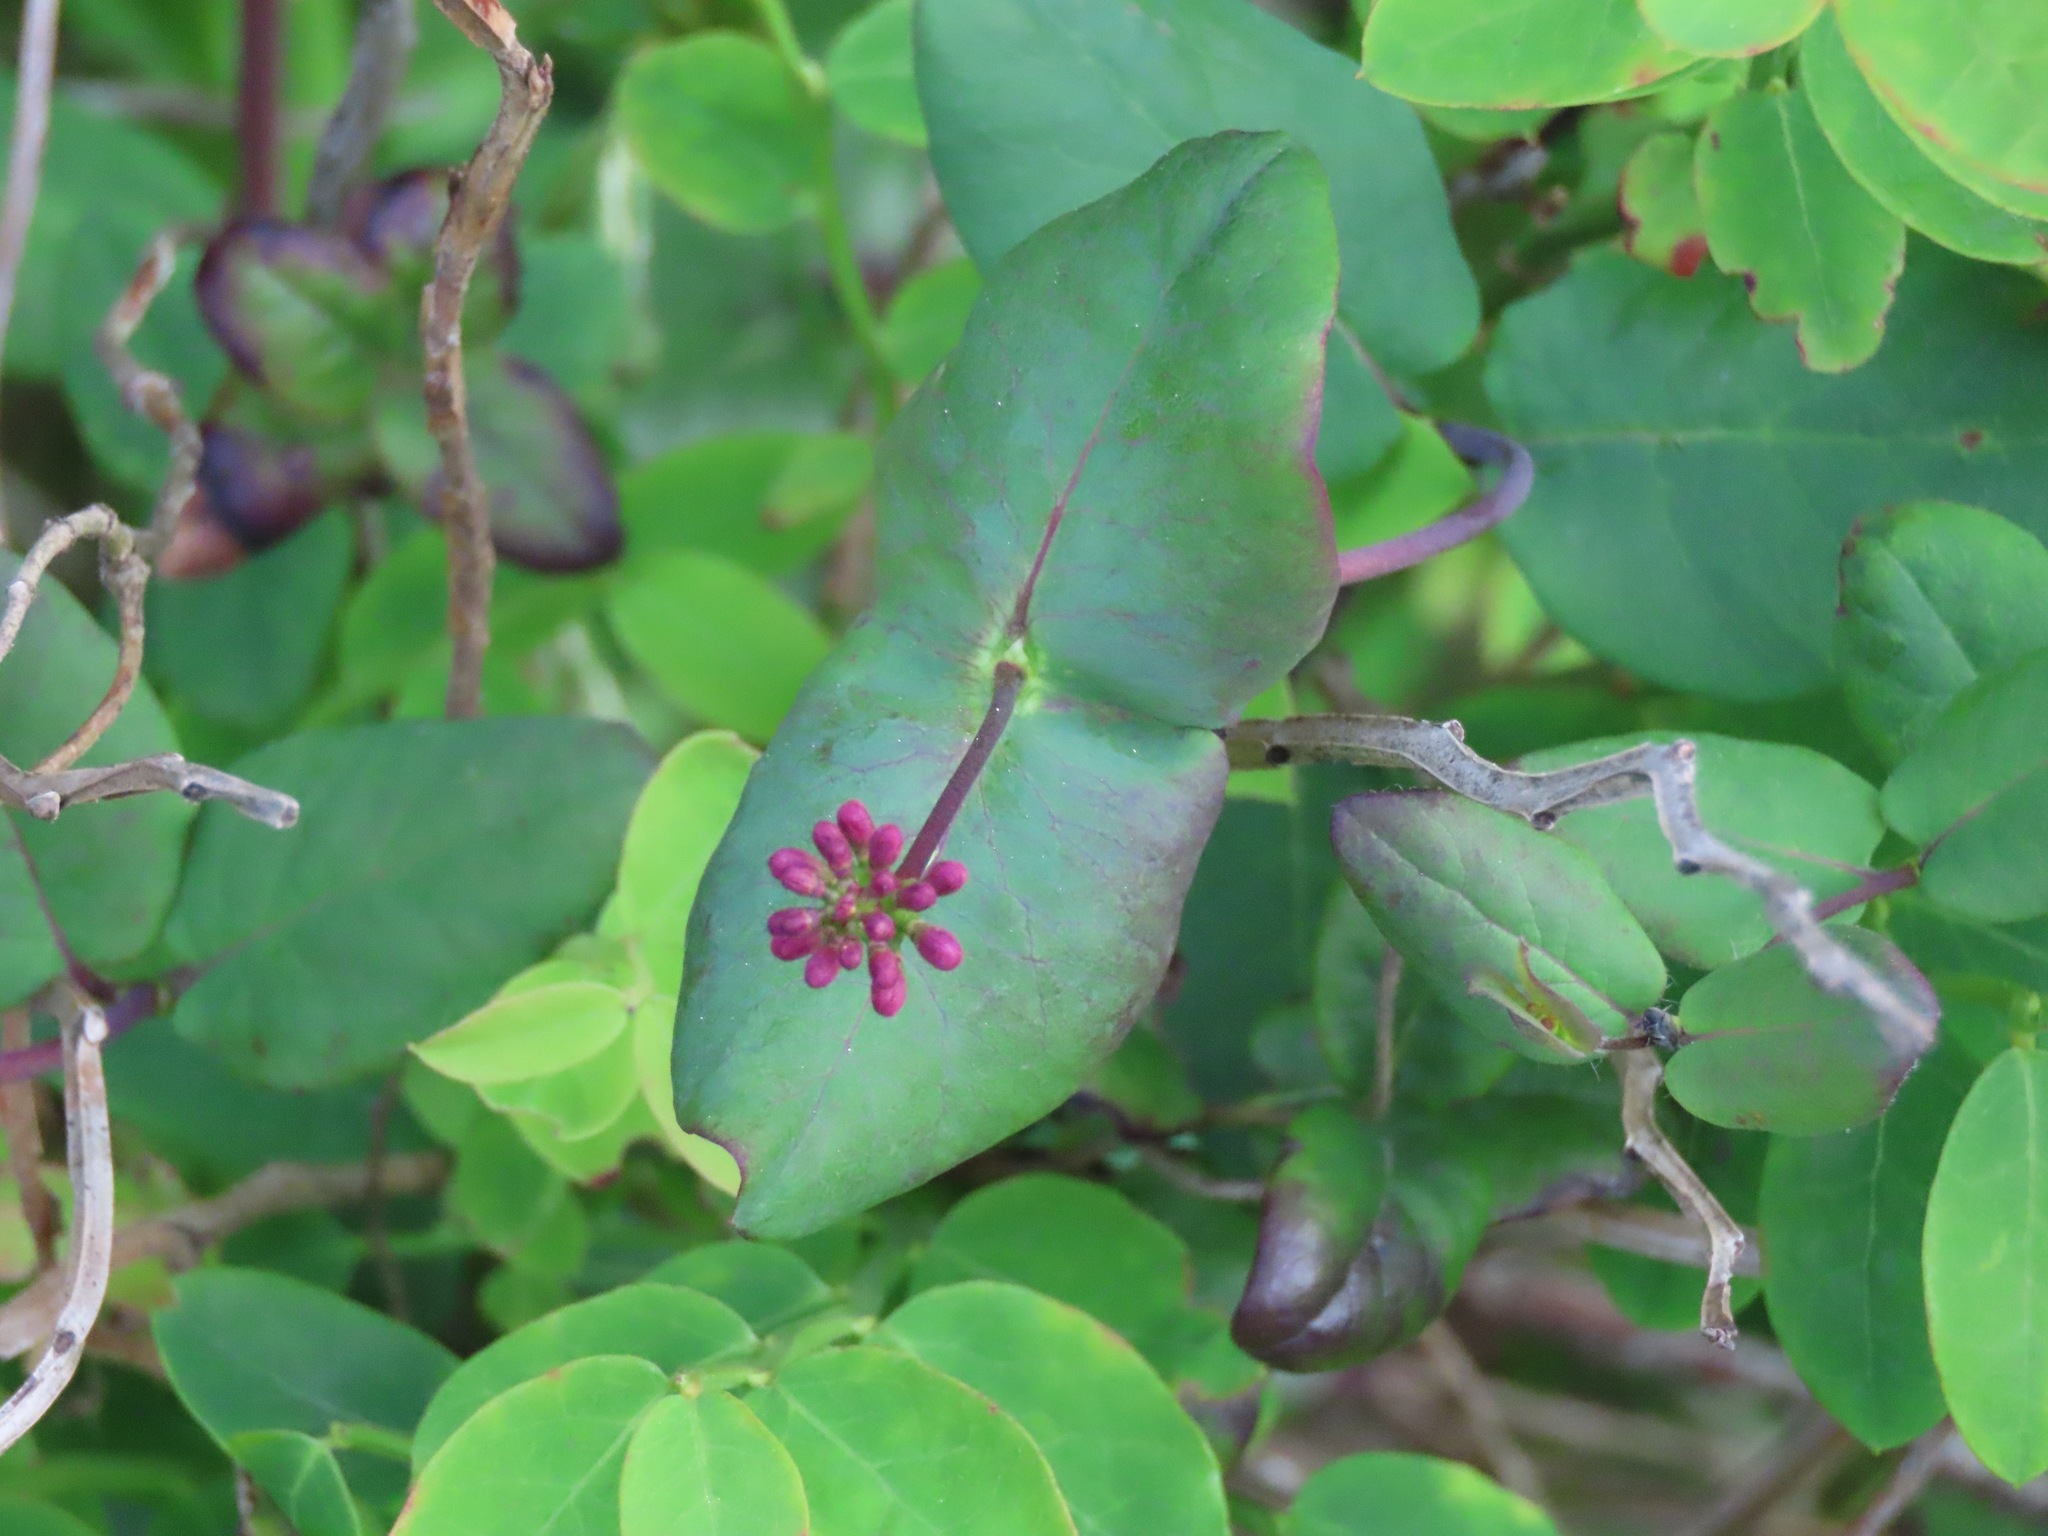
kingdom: Plantae
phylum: Tracheophyta
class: Magnoliopsida
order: Dipsacales
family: Caprifoliaceae
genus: Lonicera
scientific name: Lonicera hispidula
